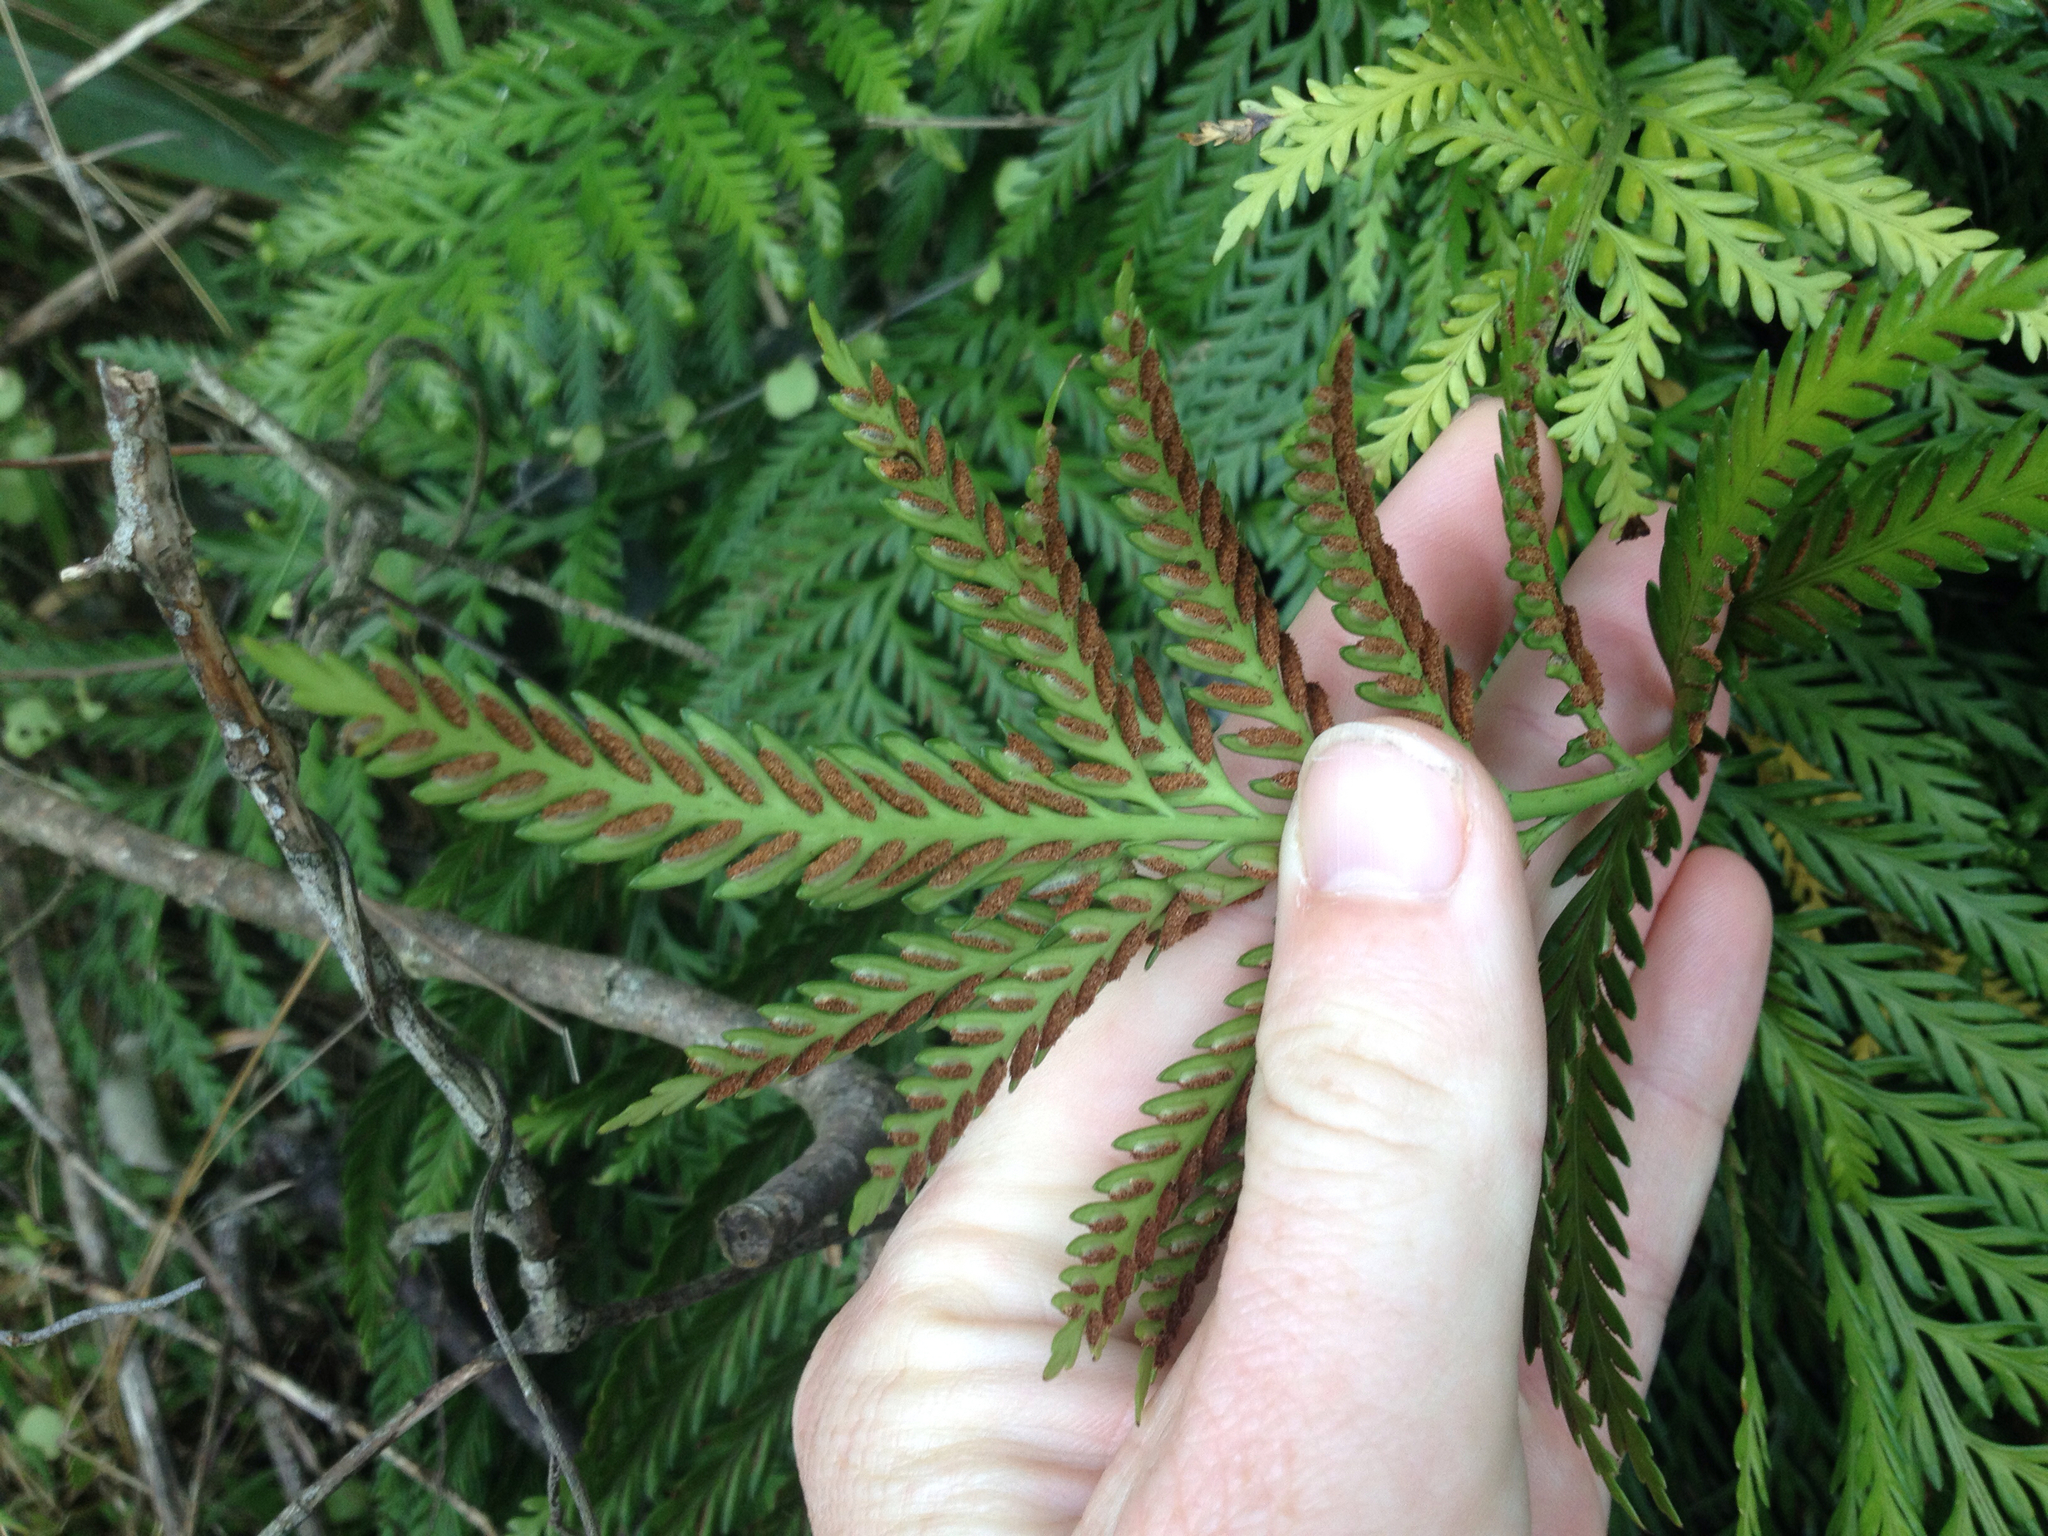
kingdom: Plantae
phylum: Tracheophyta
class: Polypodiopsida
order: Polypodiales
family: Aspleniaceae
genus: Asplenium
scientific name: Asplenium appendiculatum
